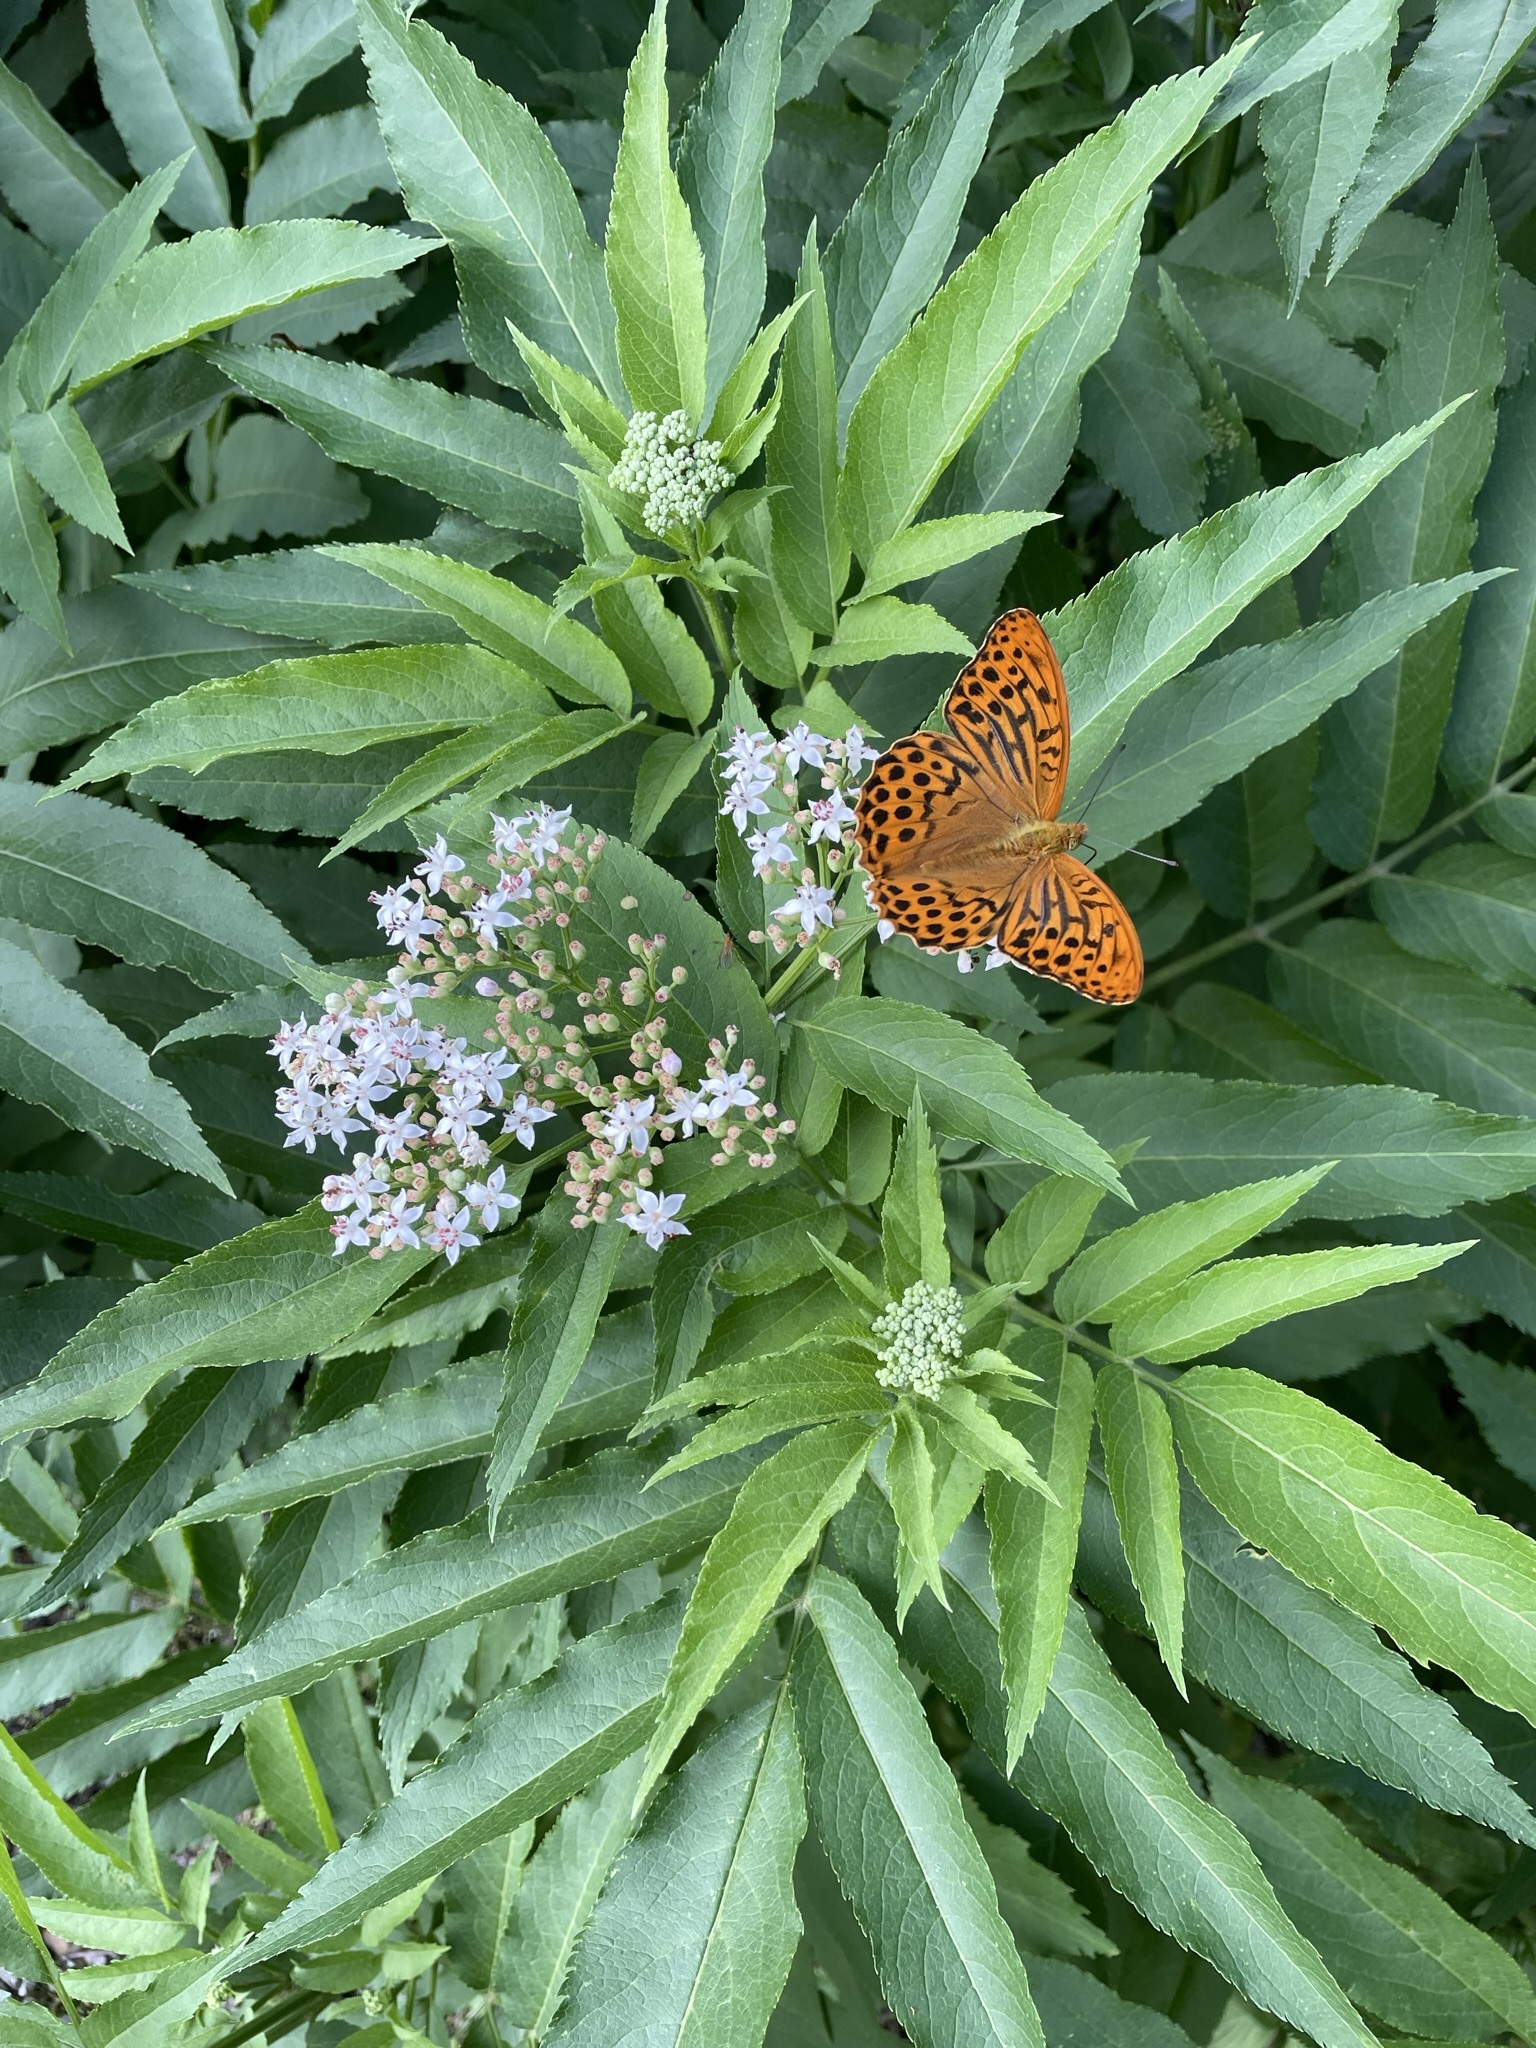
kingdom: Plantae
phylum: Tracheophyta
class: Magnoliopsida
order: Dipsacales
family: Viburnaceae
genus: Sambucus
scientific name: Sambucus ebulus
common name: Dwarf elder
